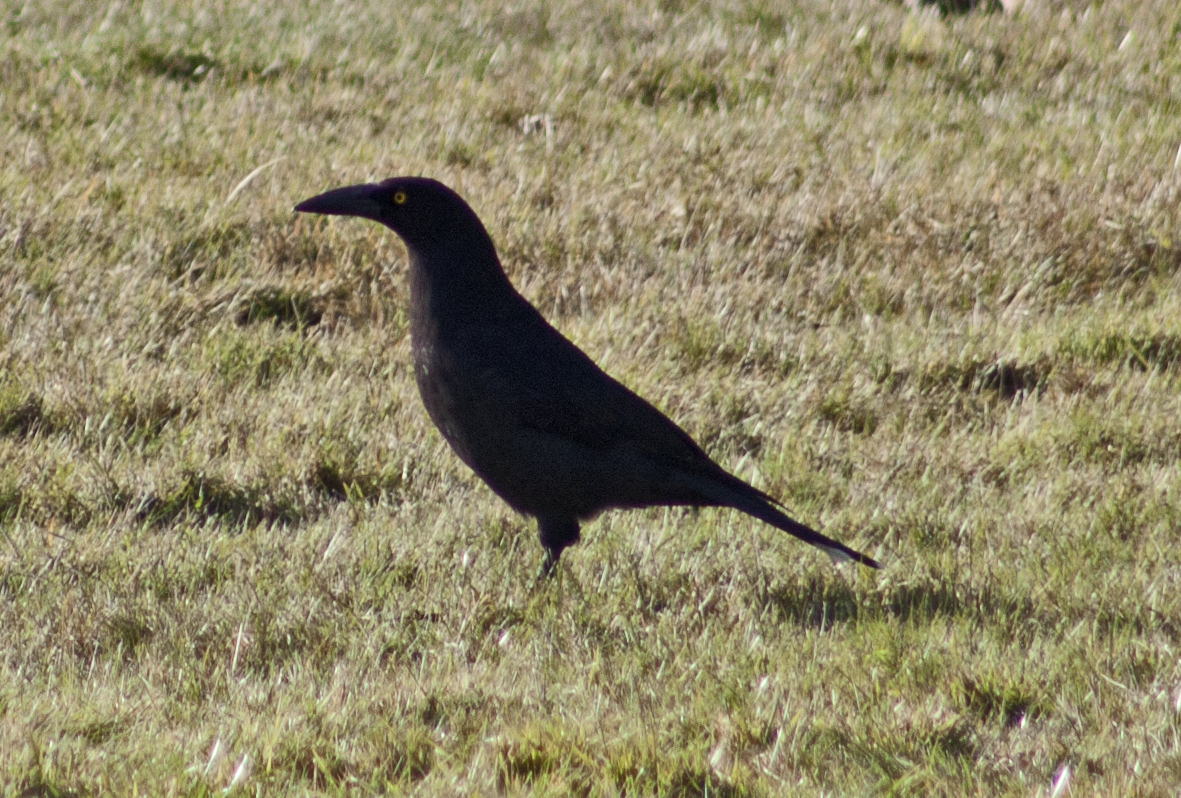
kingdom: Animalia
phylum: Chordata
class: Aves
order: Passeriformes
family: Cracticidae
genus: Strepera
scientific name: Strepera fuliginosa
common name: Black currawong
